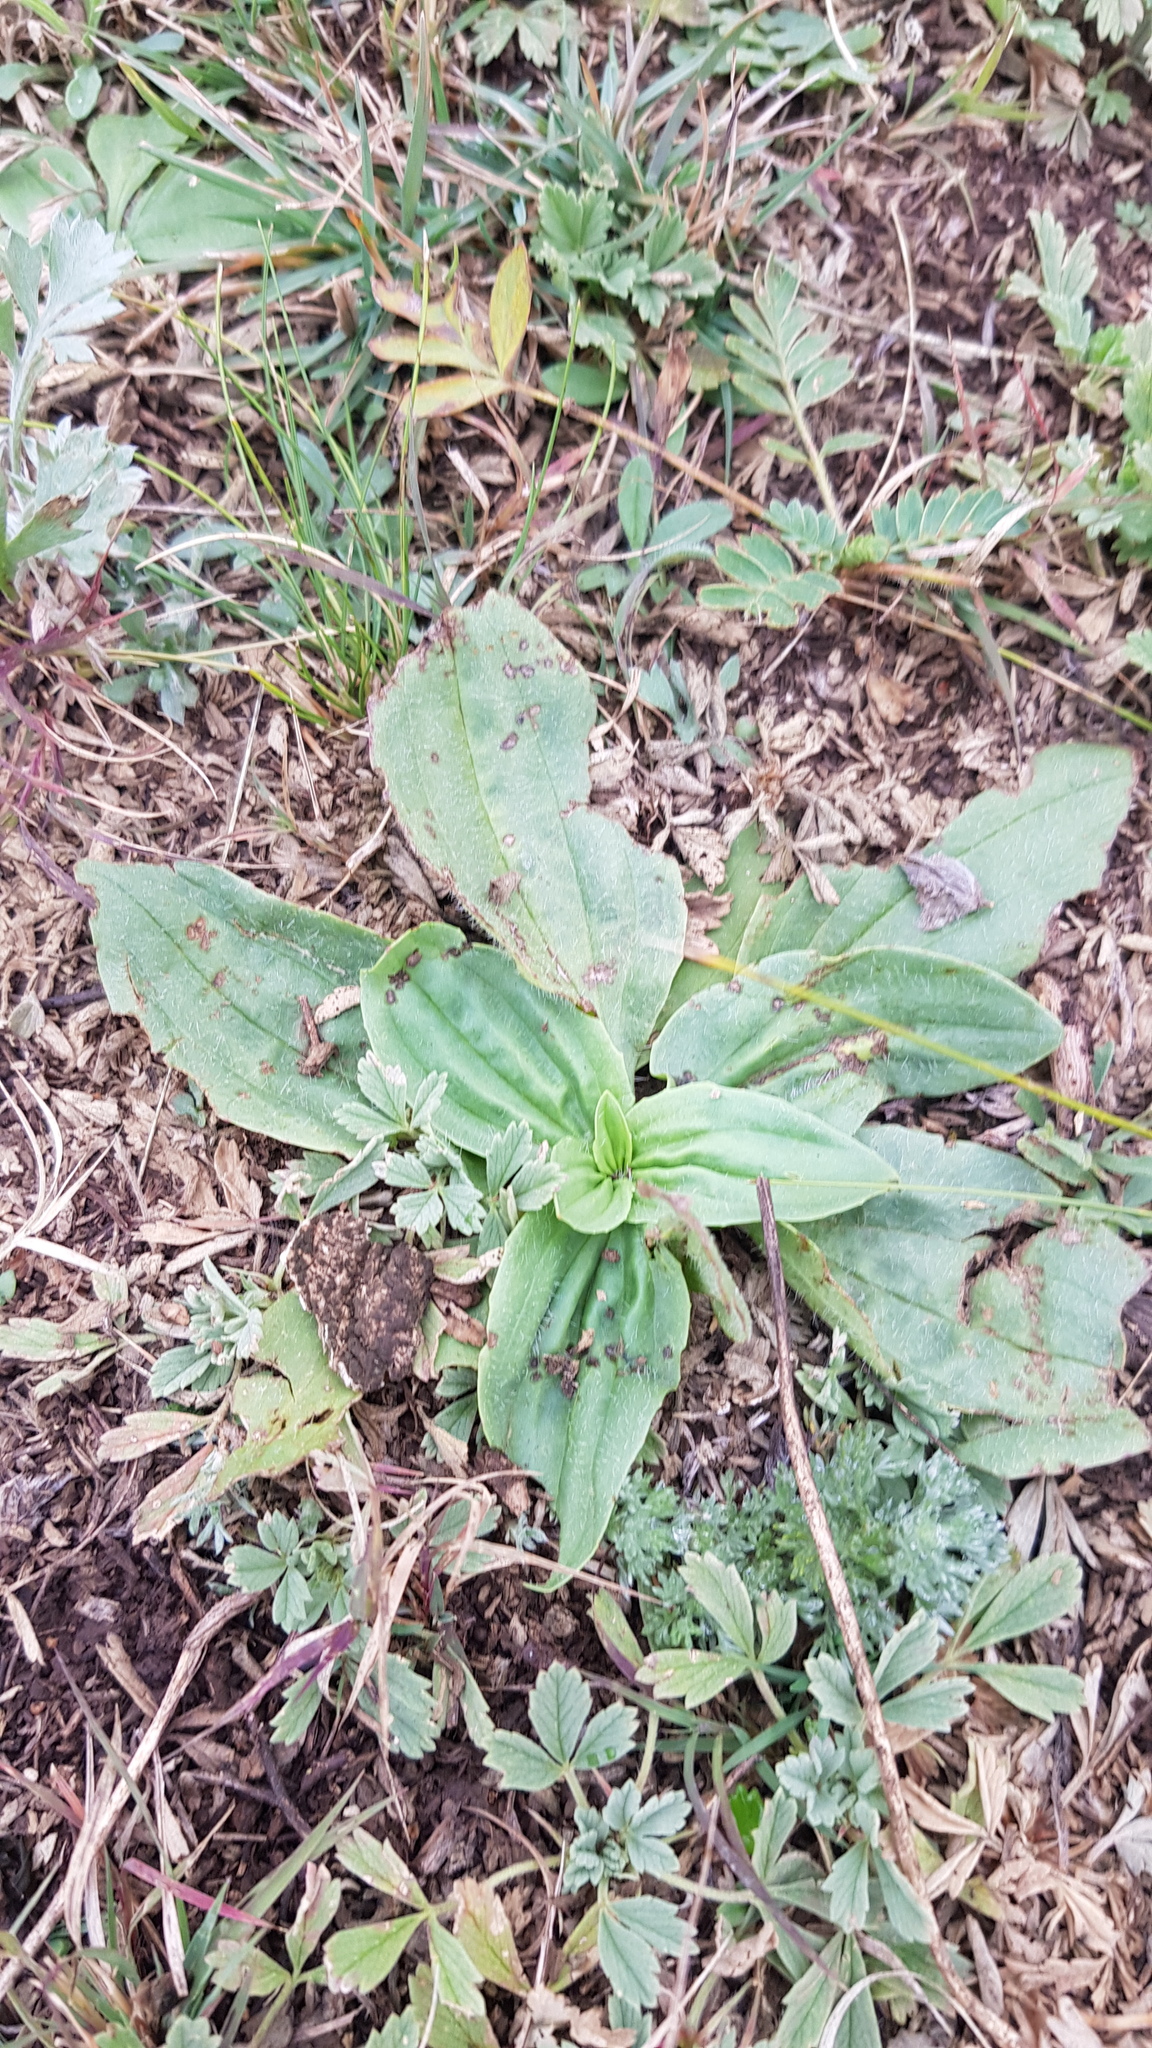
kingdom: Plantae
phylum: Tracheophyta
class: Magnoliopsida
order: Lamiales
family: Plantaginaceae
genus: Plantago
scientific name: Plantago depressa
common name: Depressed plantain
